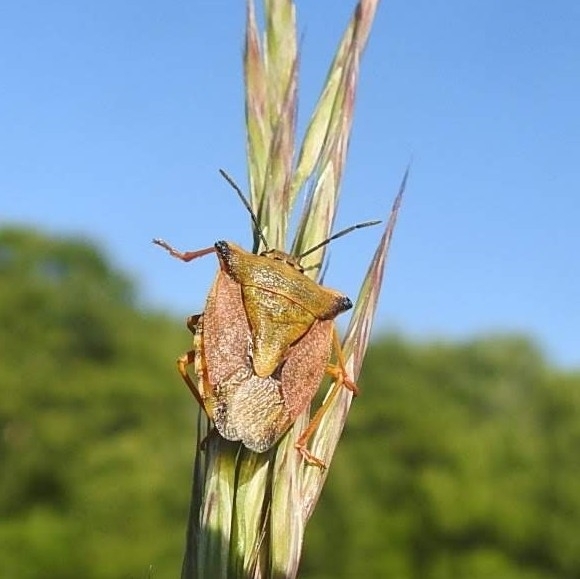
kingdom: Animalia
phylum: Arthropoda
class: Insecta
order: Hemiptera
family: Pentatomidae
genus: Carpocoris
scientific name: Carpocoris mediterraneus
